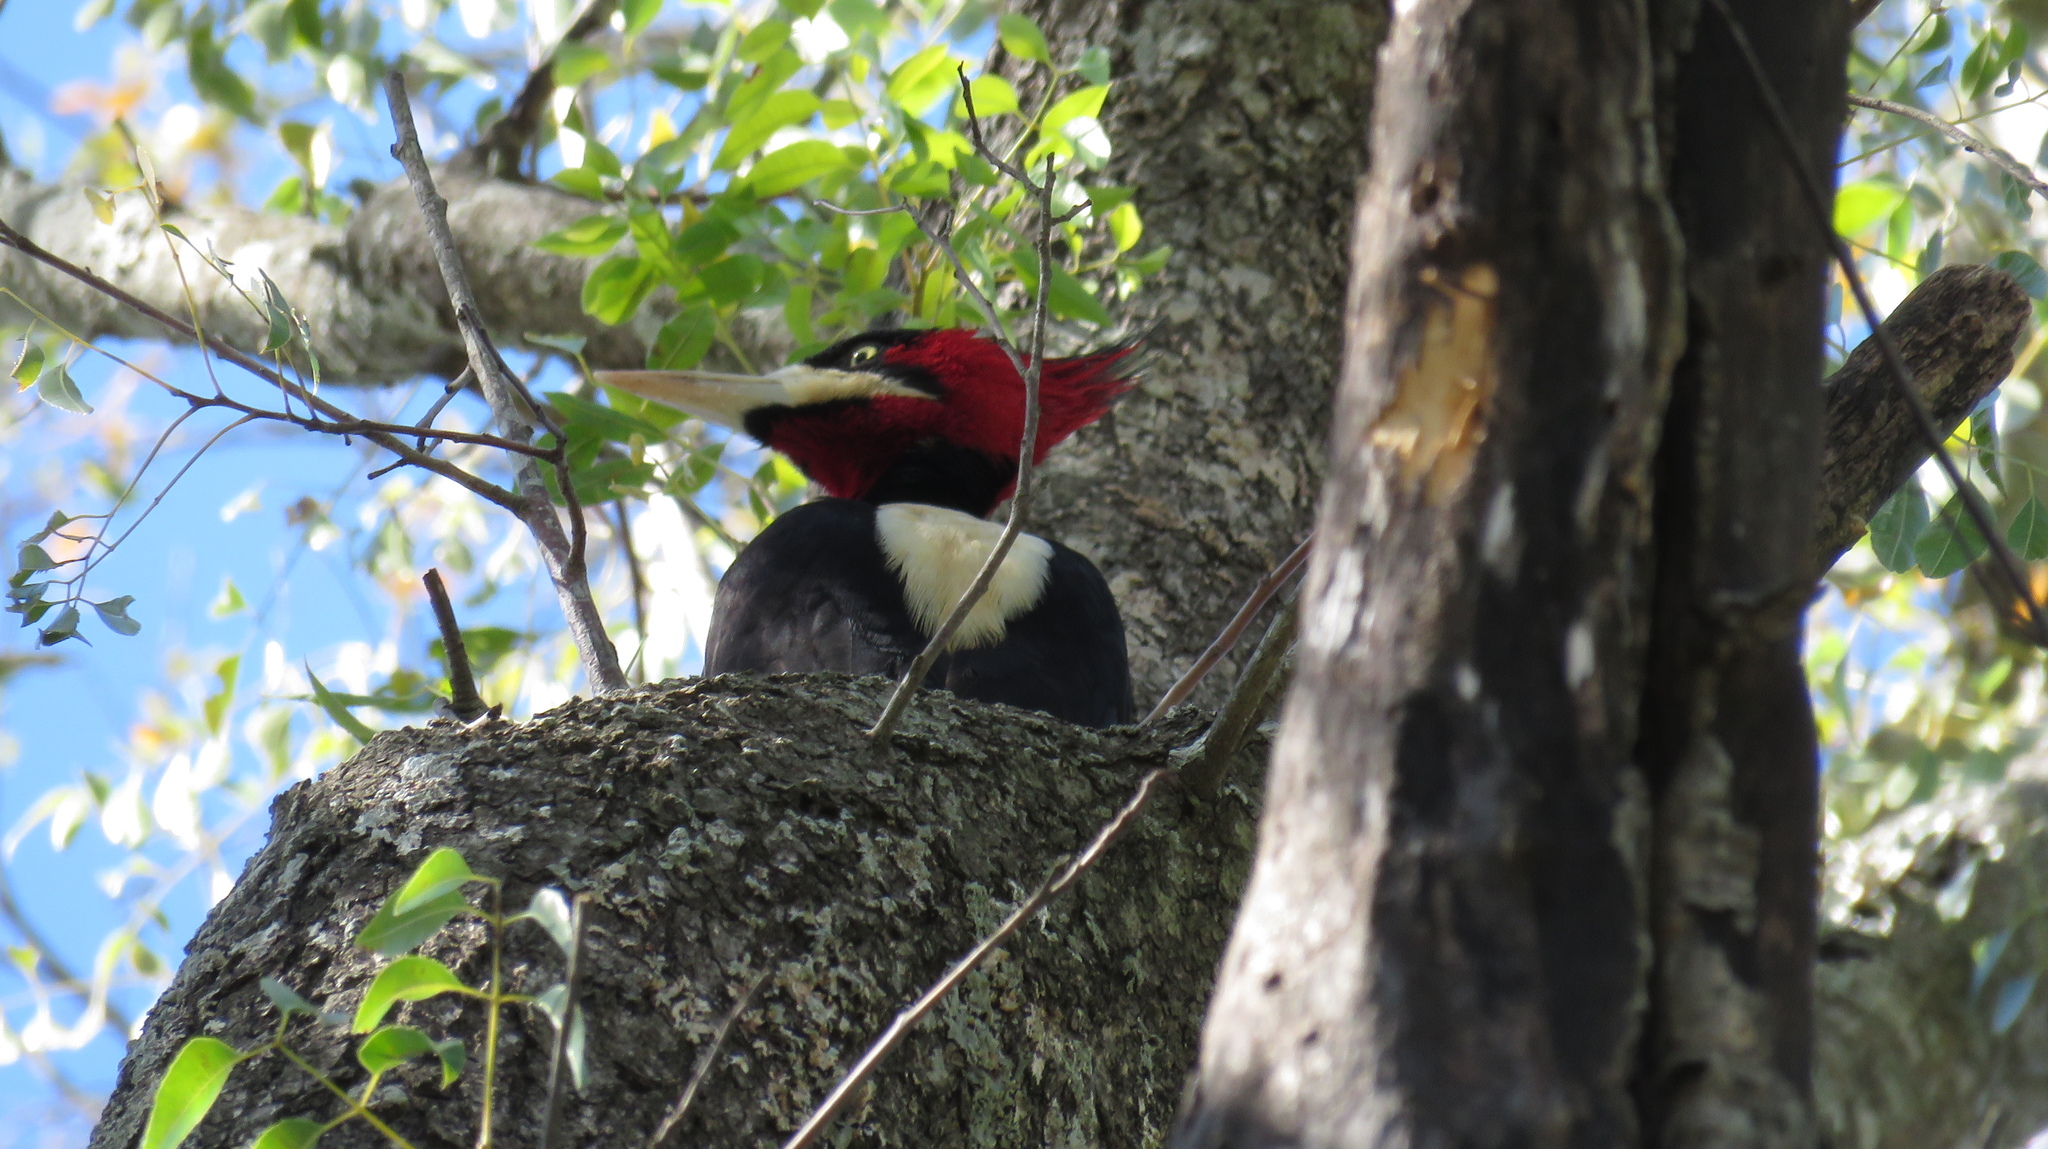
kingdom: Animalia
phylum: Chordata
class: Aves
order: Piciformes
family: Picidae
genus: Campephilus
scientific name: Campephilus leucopogon
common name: Cream-backed woodpecker
